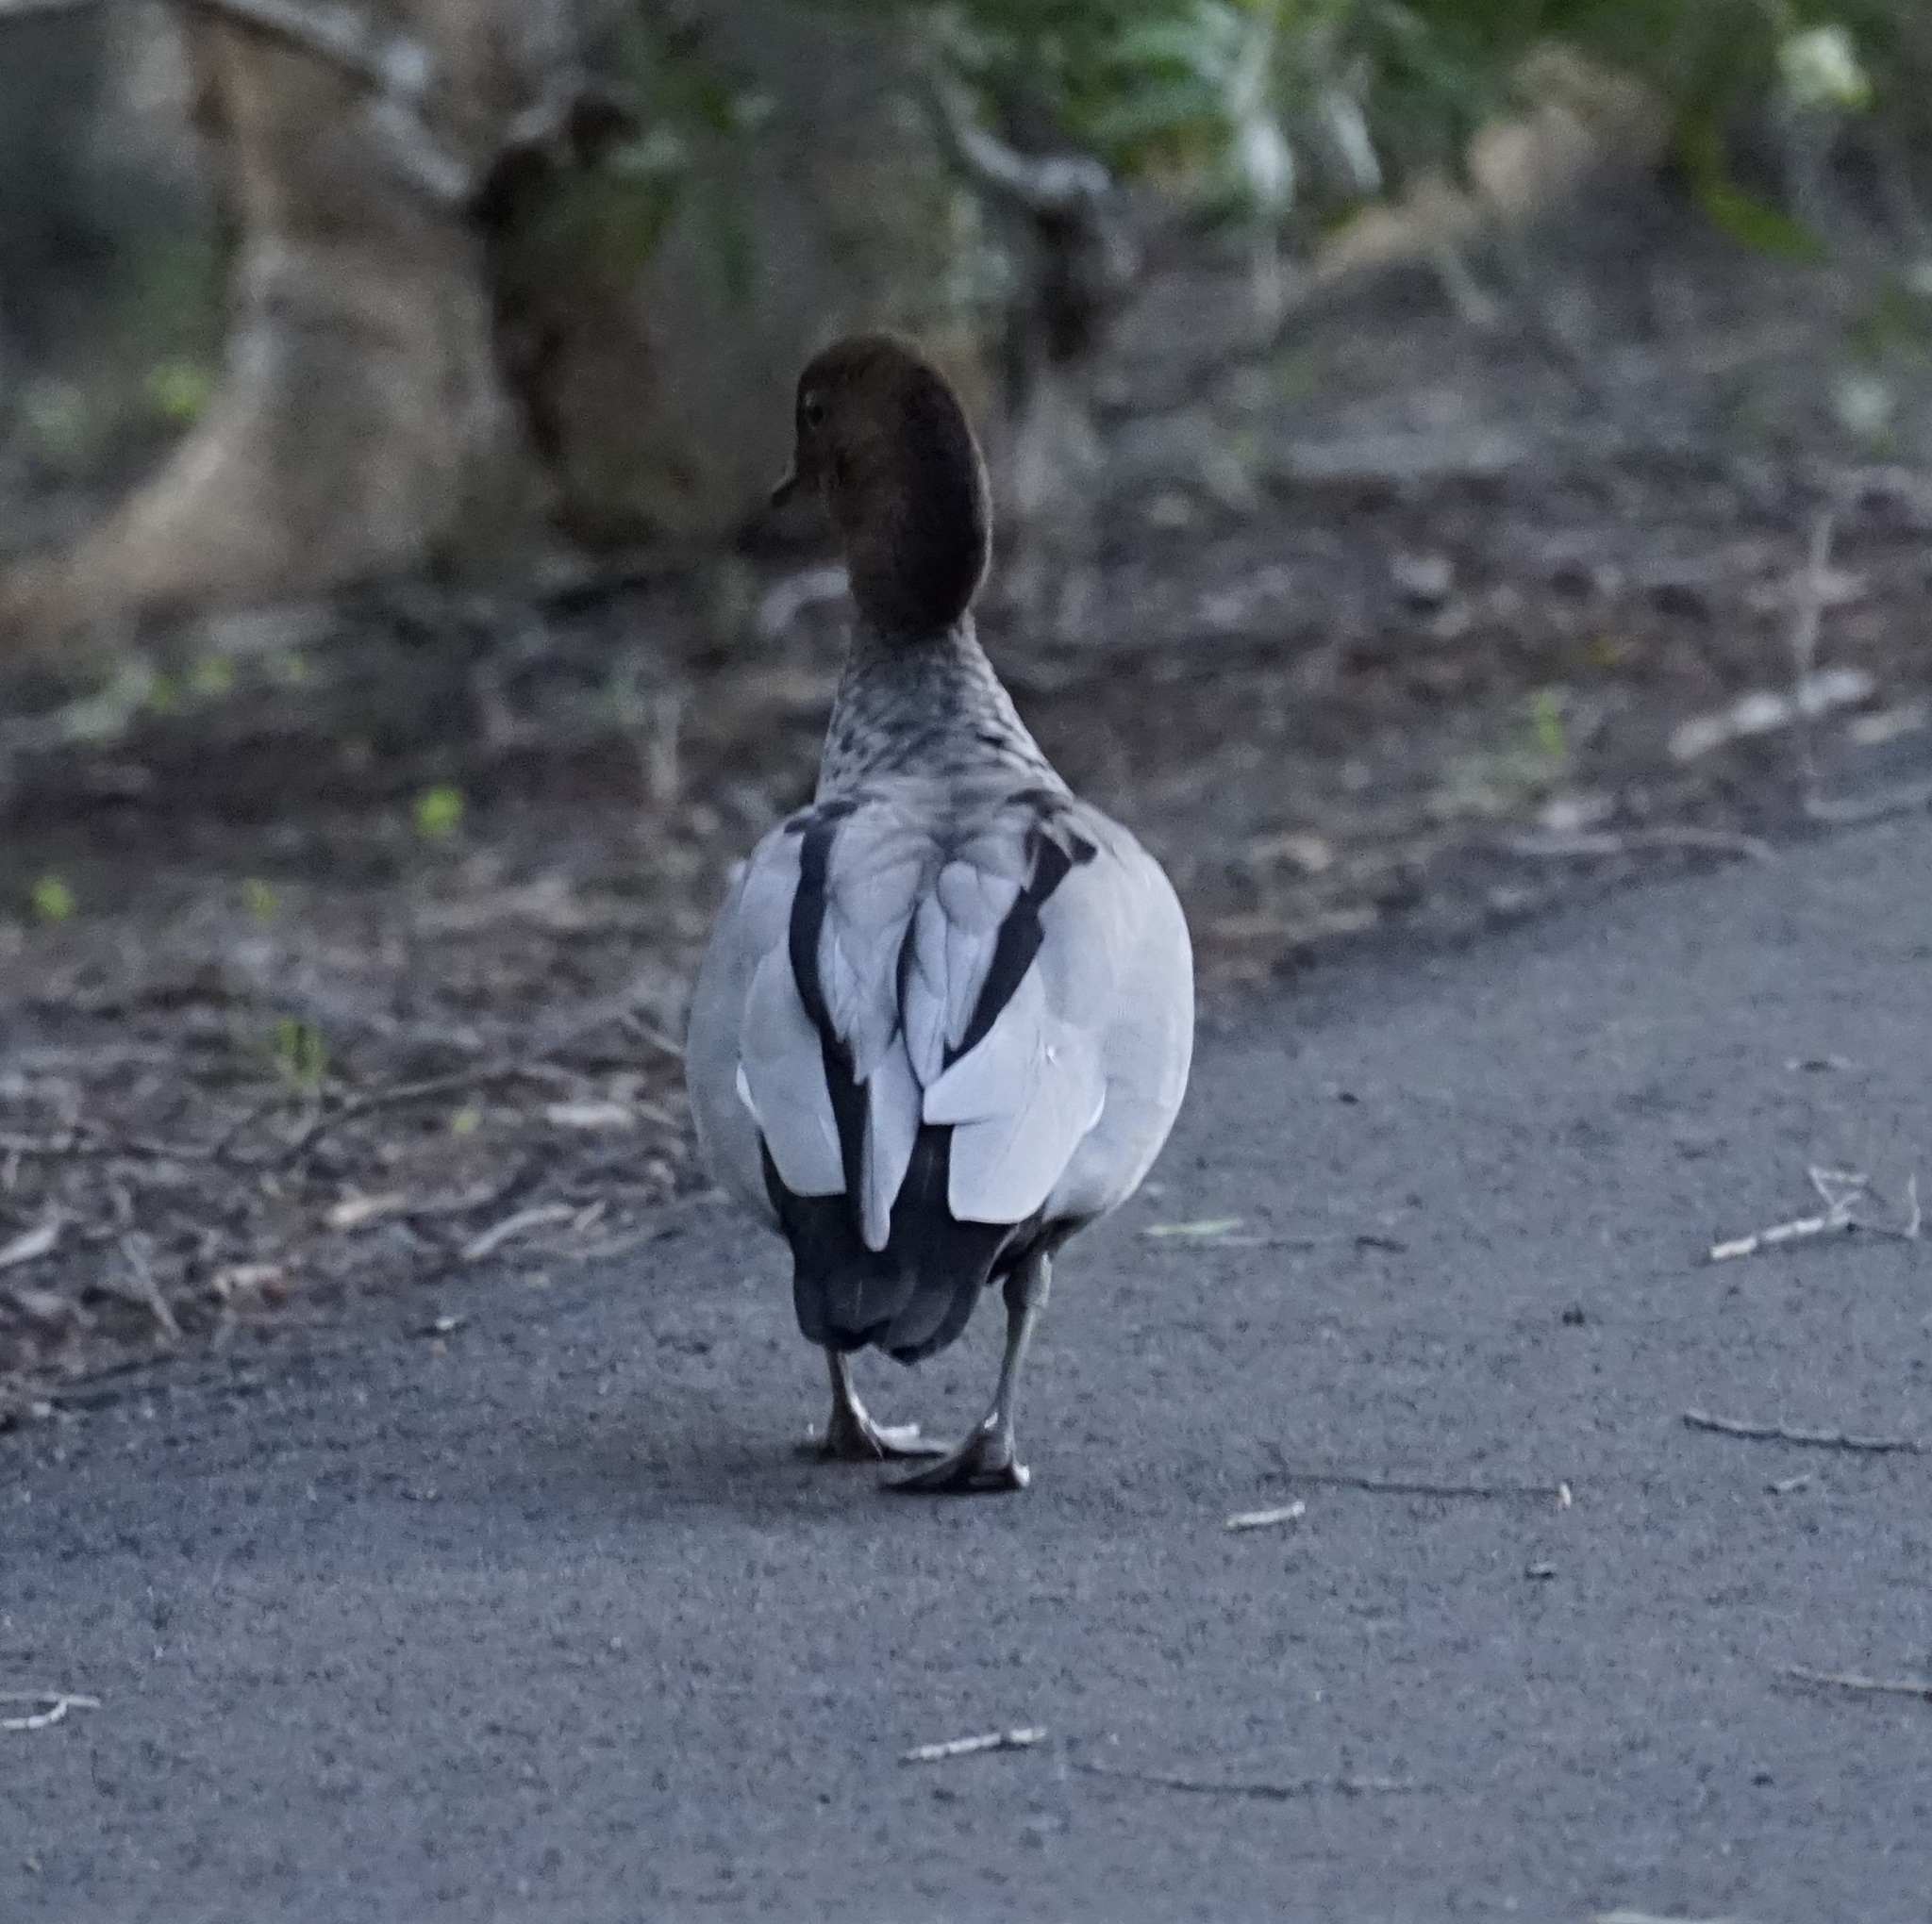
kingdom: Animalia
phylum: Chordata
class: Aves
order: Anseriformes
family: Anatidae
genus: Chenonetta
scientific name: Chenonetta jubata
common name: Maned duck
